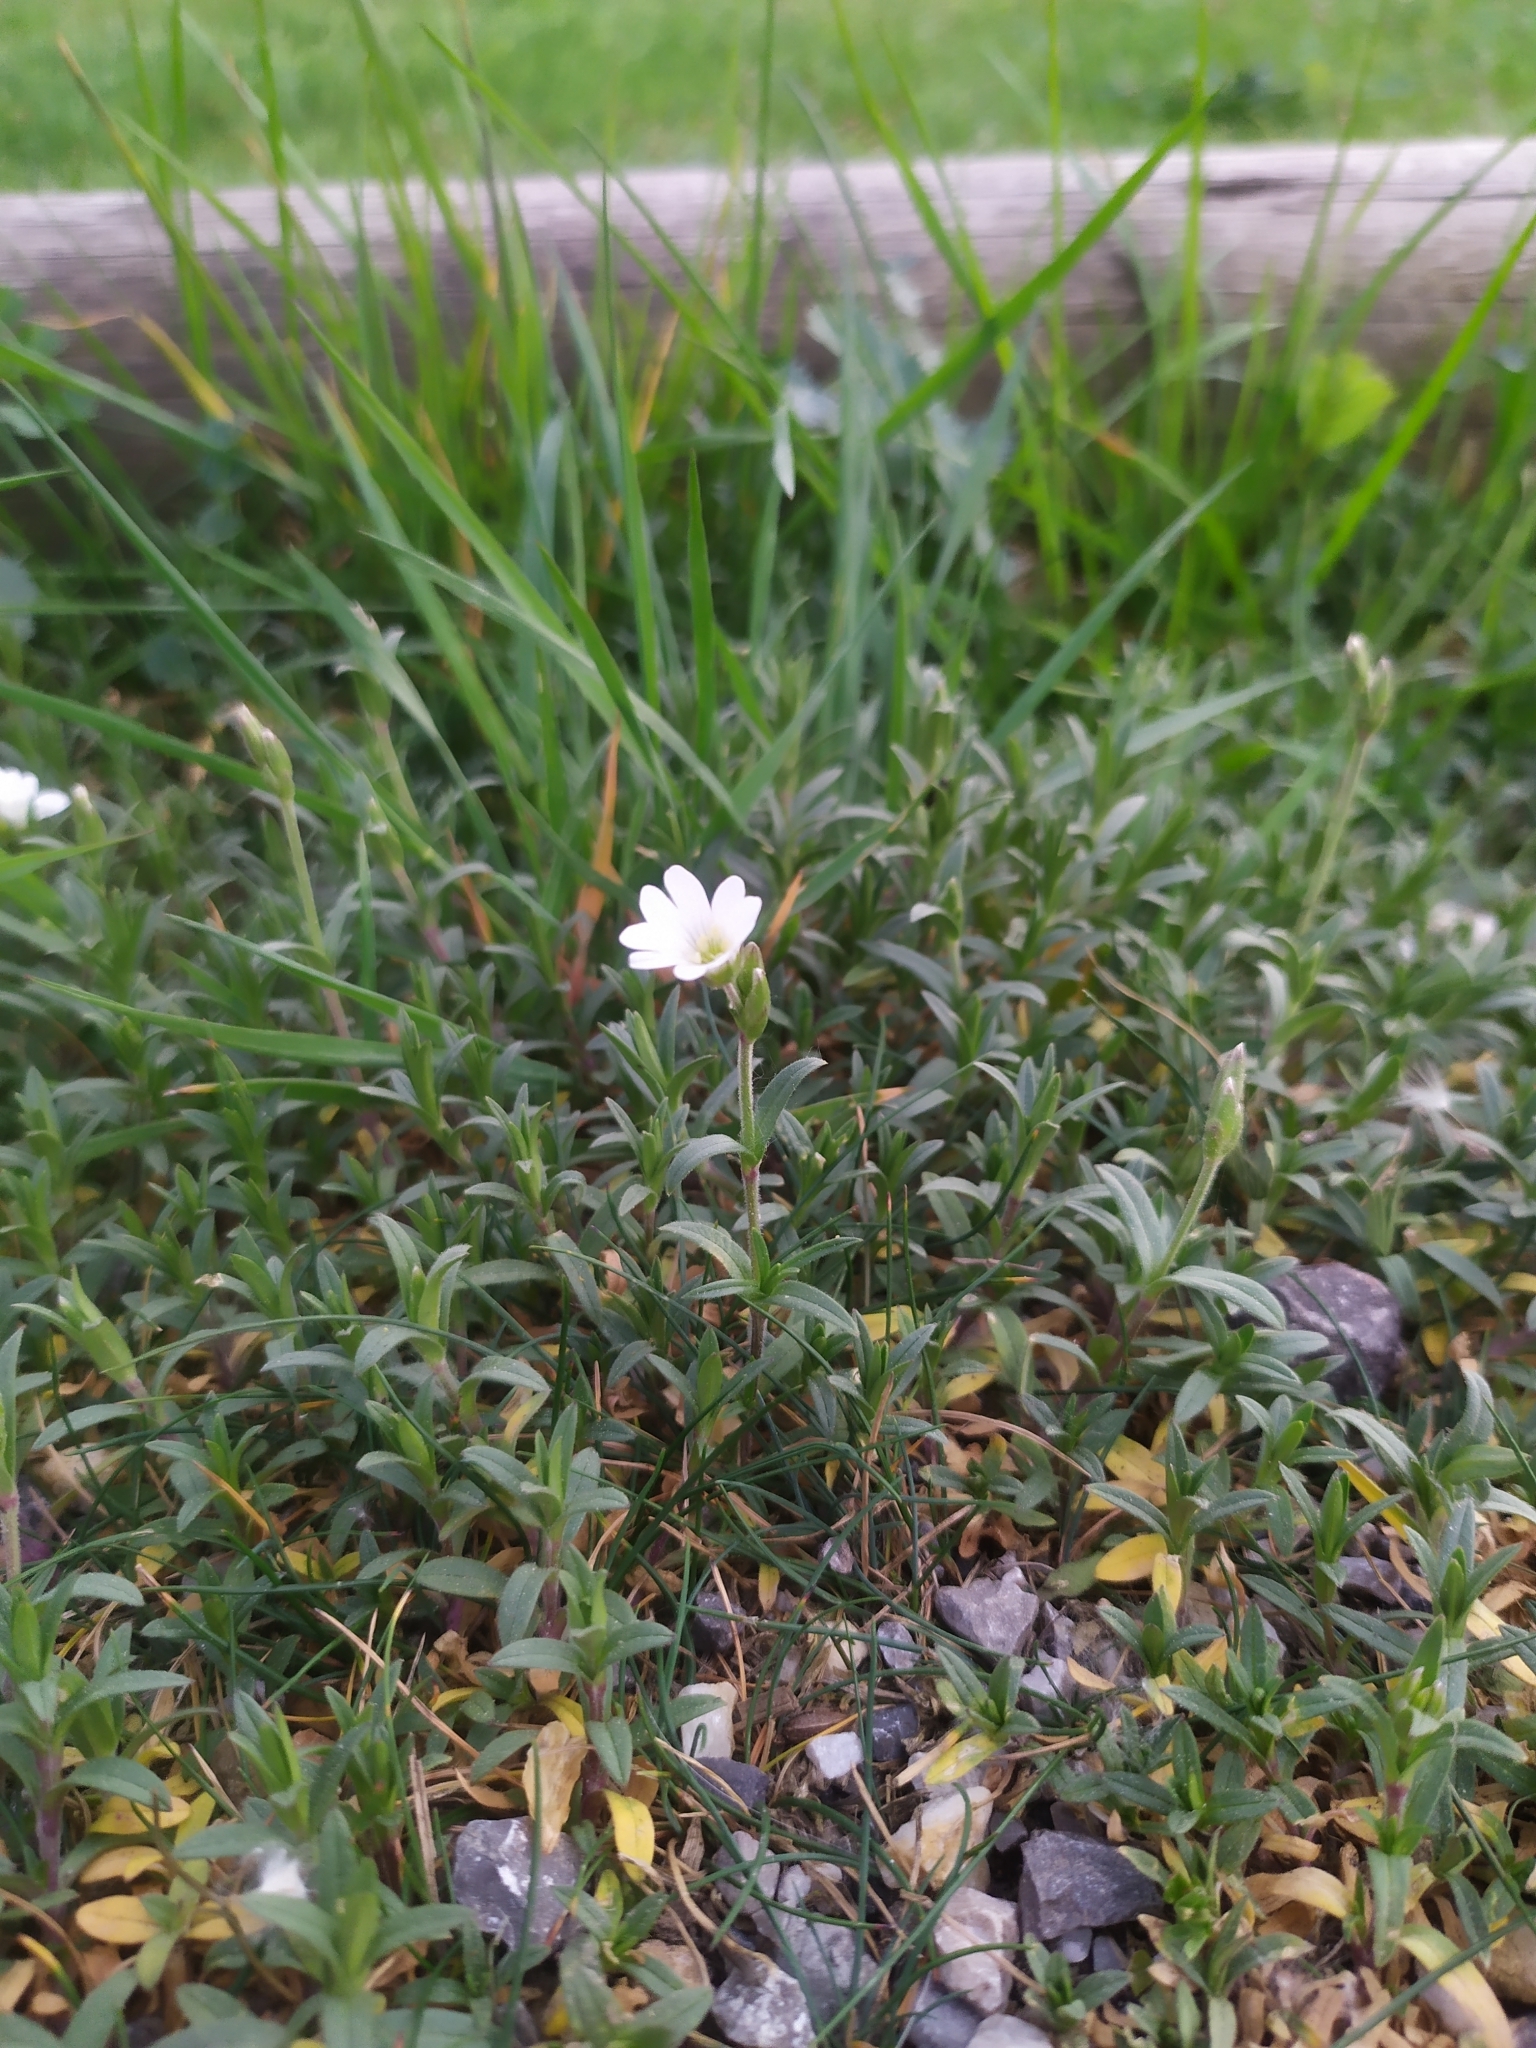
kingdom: Plantae
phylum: Tracheophyta
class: Magnoliopsida
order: Caryophyllales
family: Caryophyllaceae
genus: Cerastium
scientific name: Cerastium arvense
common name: Field mouse-ear
